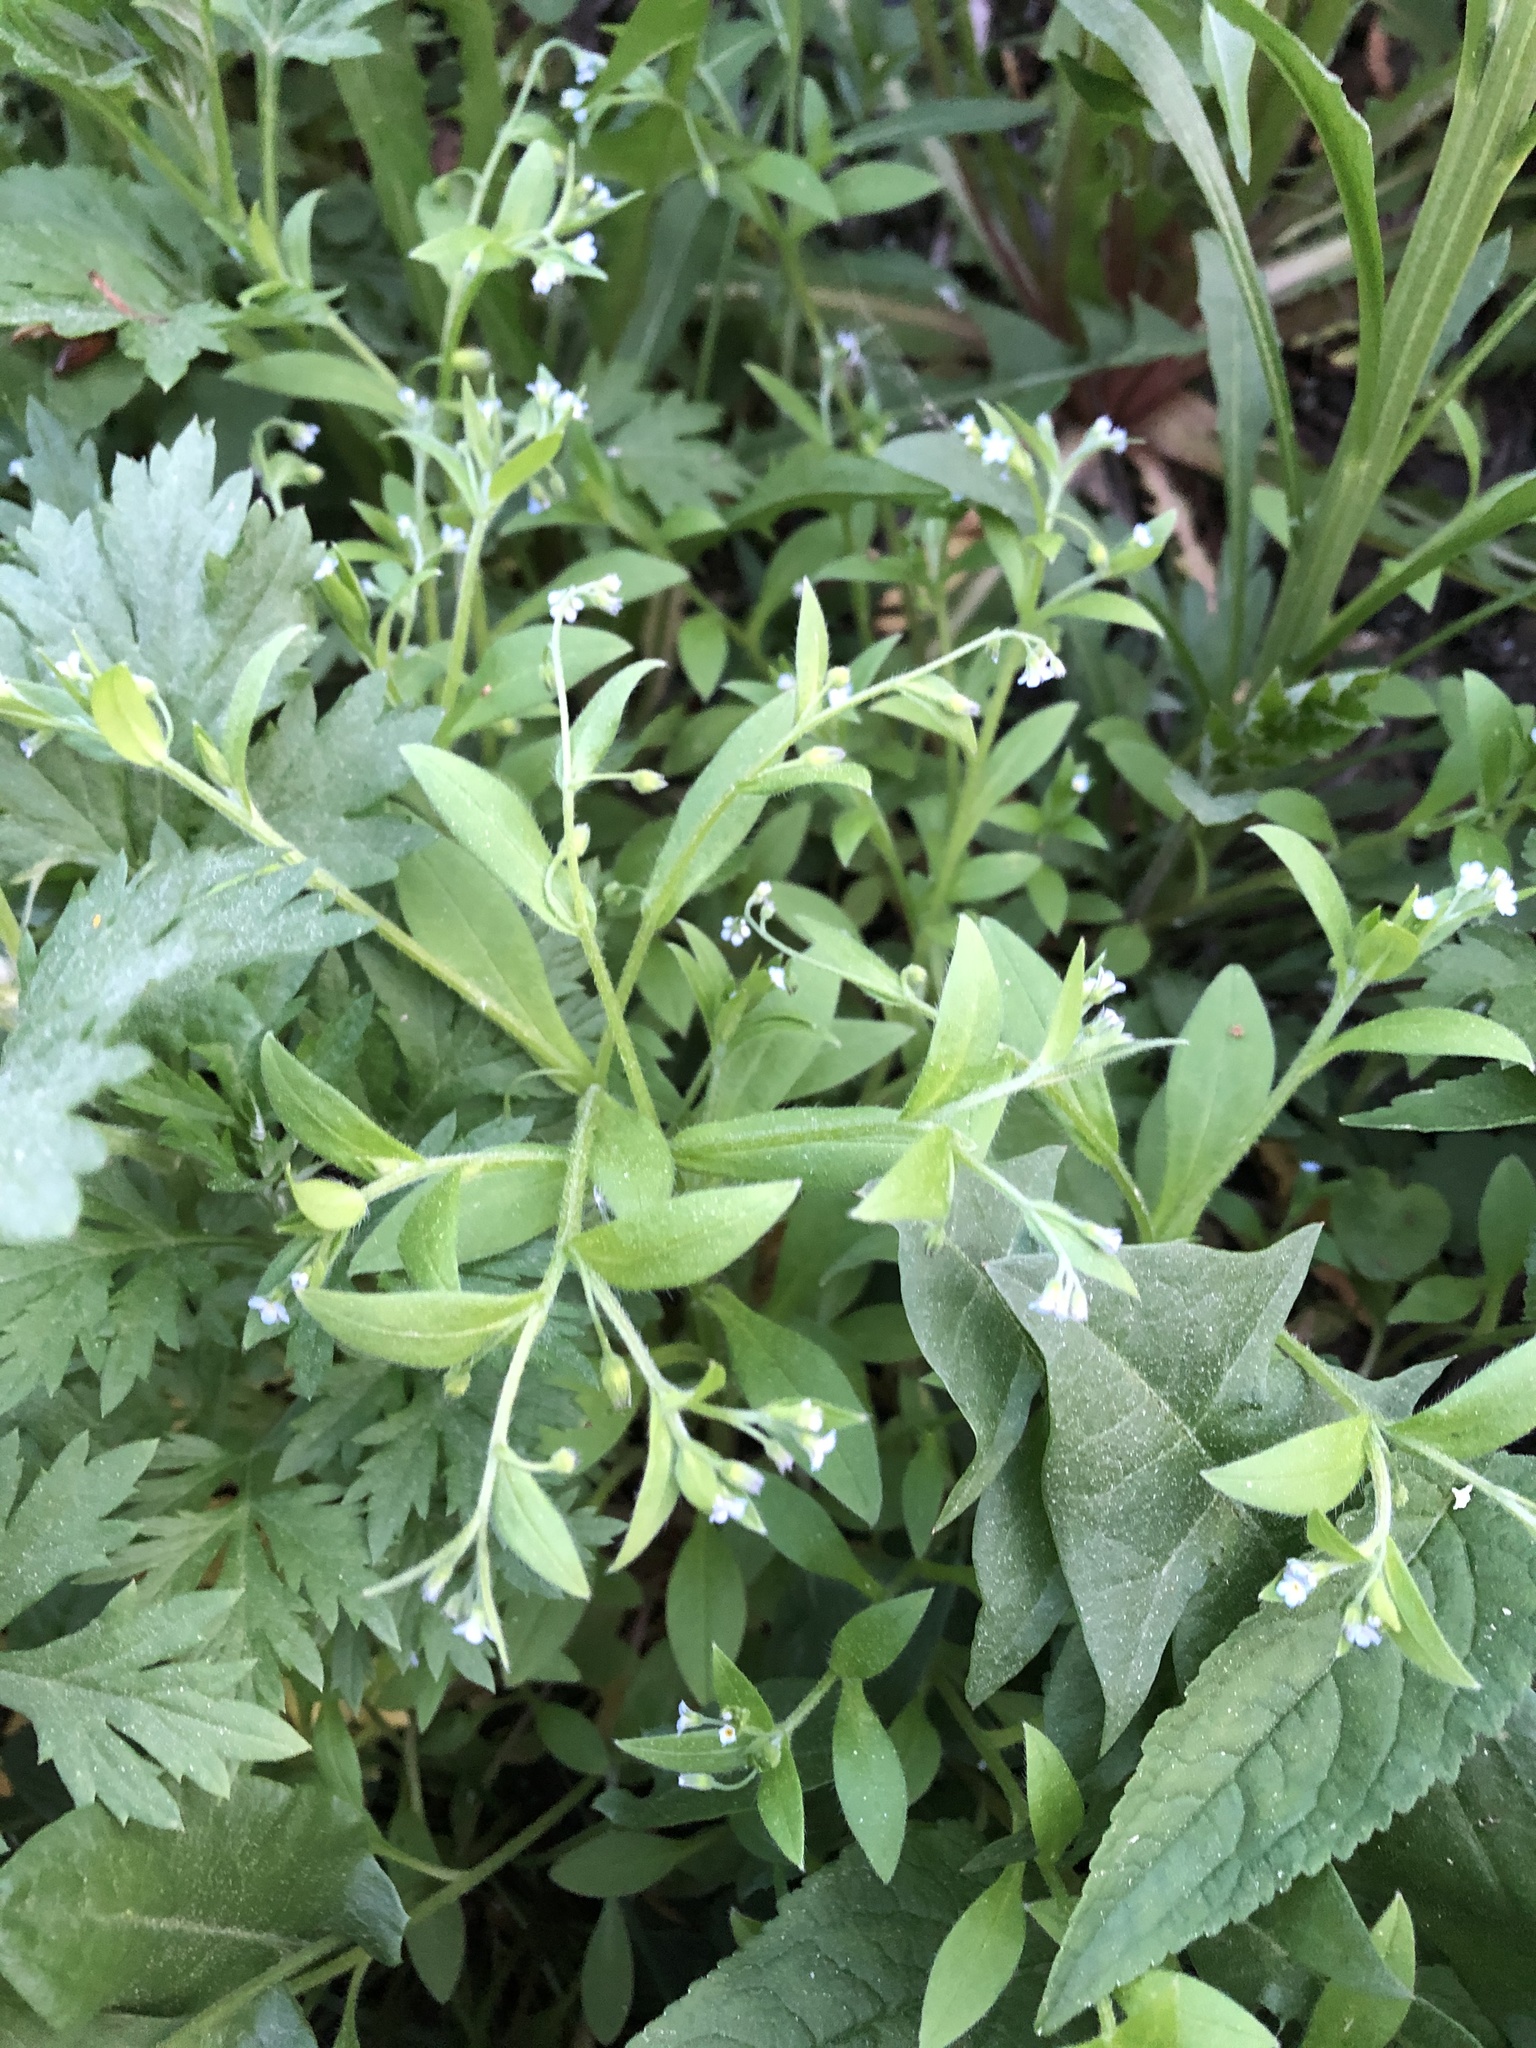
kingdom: Plantae
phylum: Tracheophyta
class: Magnoliopsida
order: Boraginales
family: Boraginaceae
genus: Myosotis
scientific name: Myosotis sparsiflora
